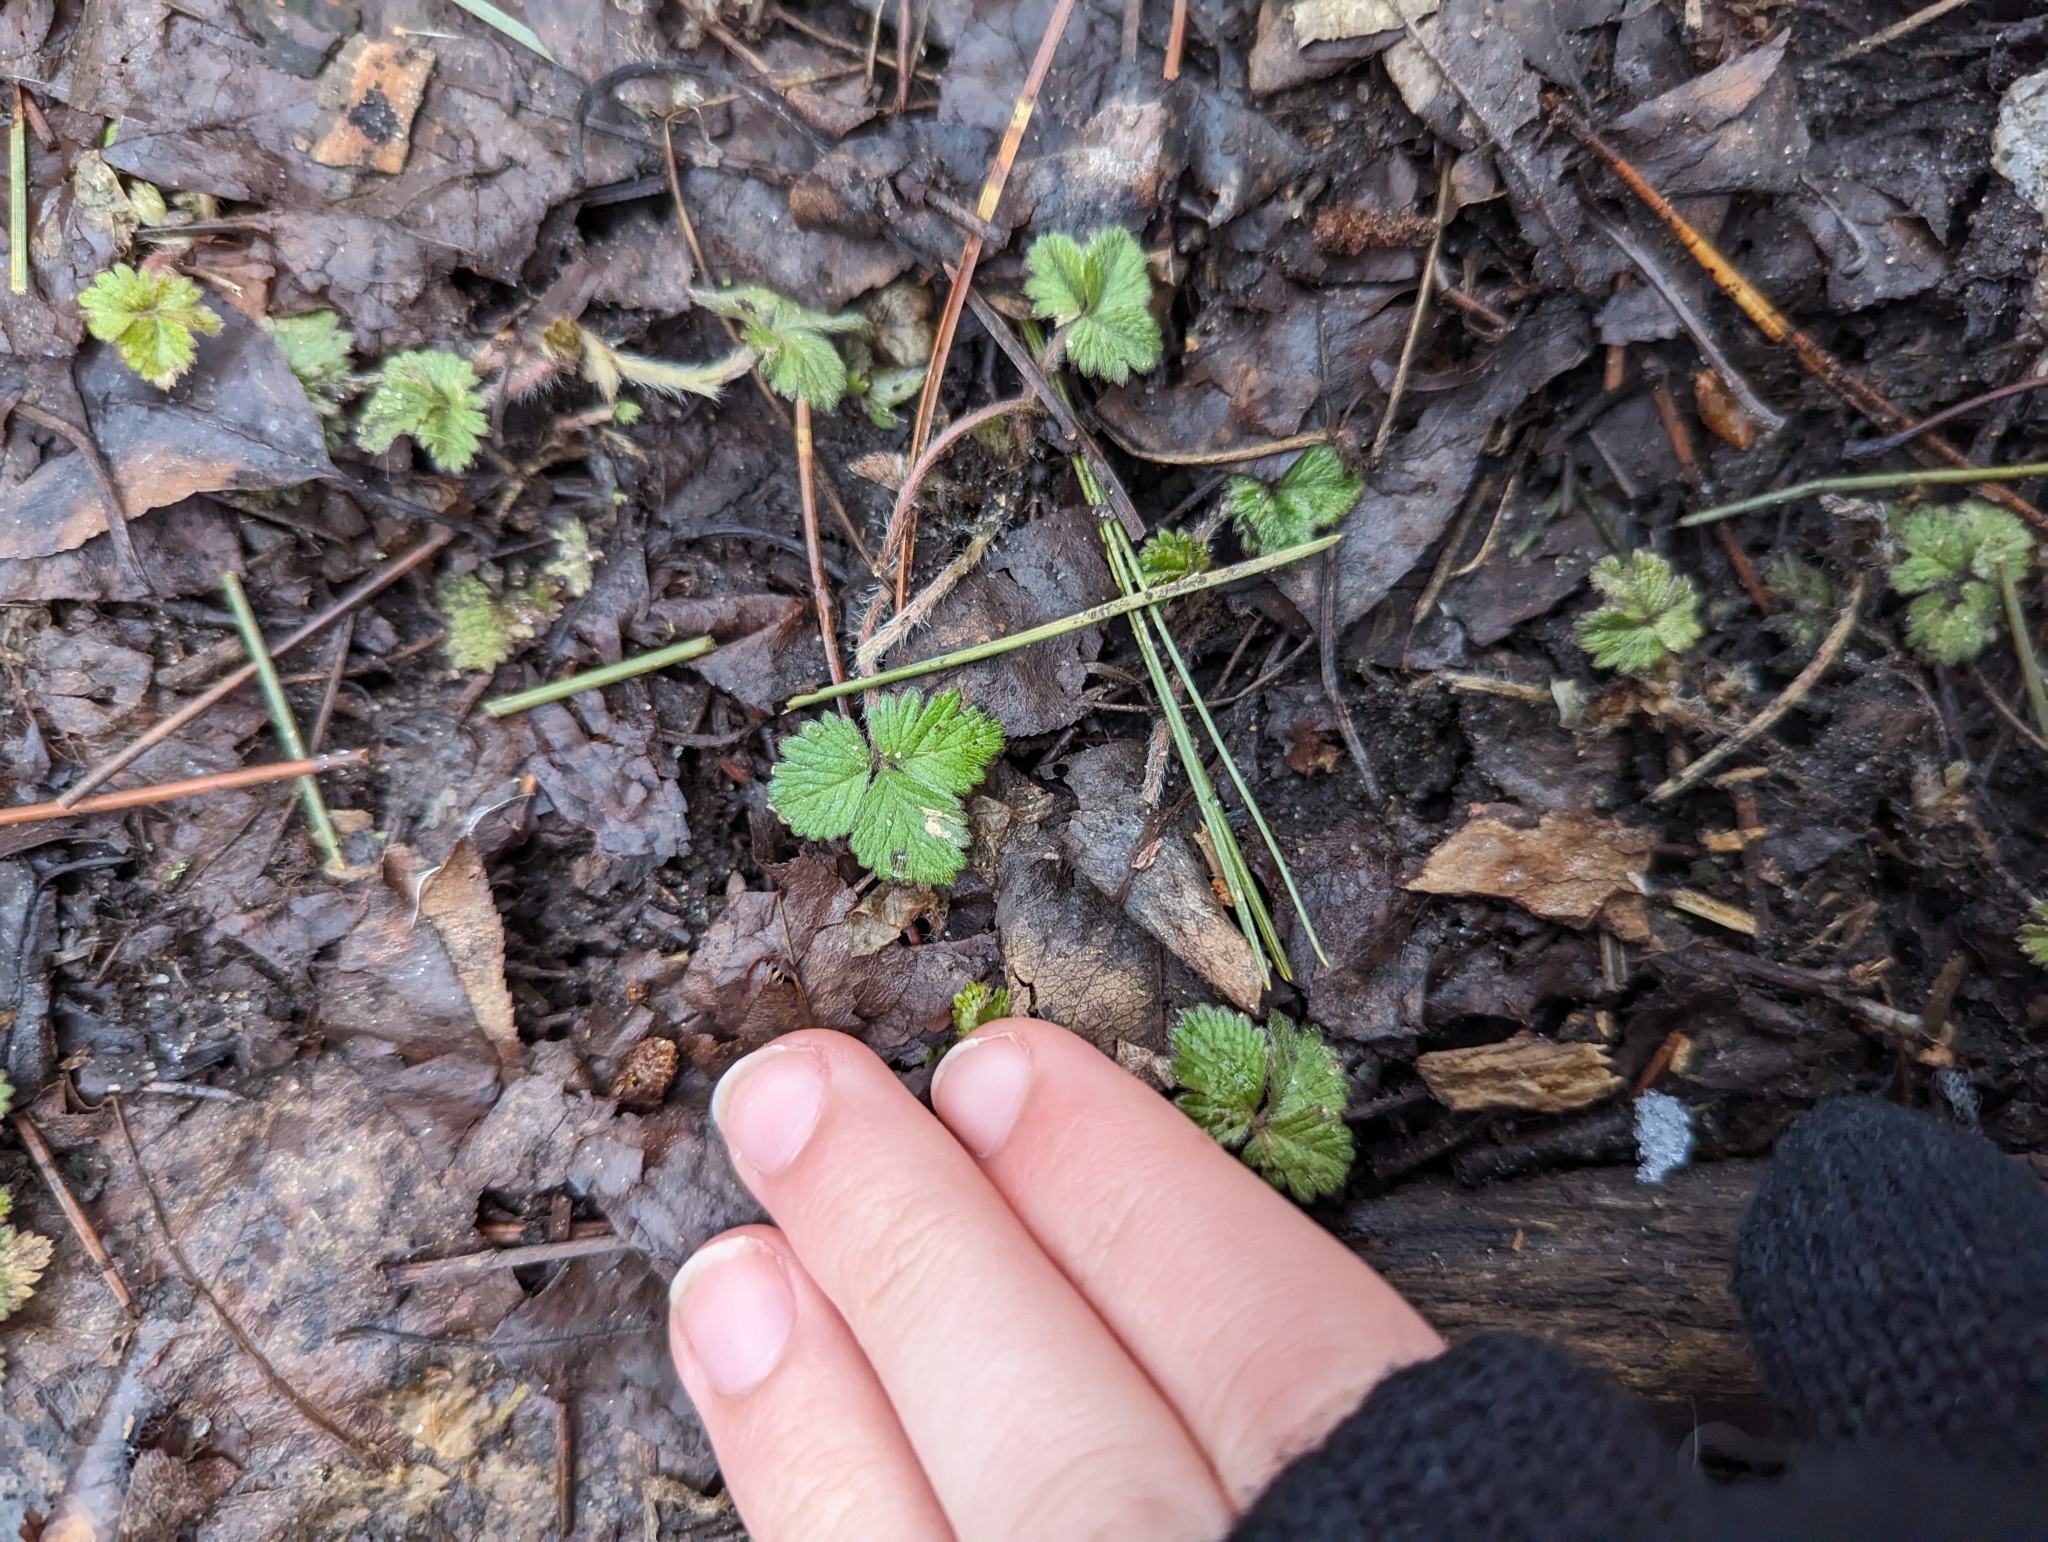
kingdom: Plantae
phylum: Tracheophyta
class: Magnoliopsida
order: Rosales
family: Rosaceae
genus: Fragaria
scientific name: Fragaria virginiana
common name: Thickleaved wild strawberry
